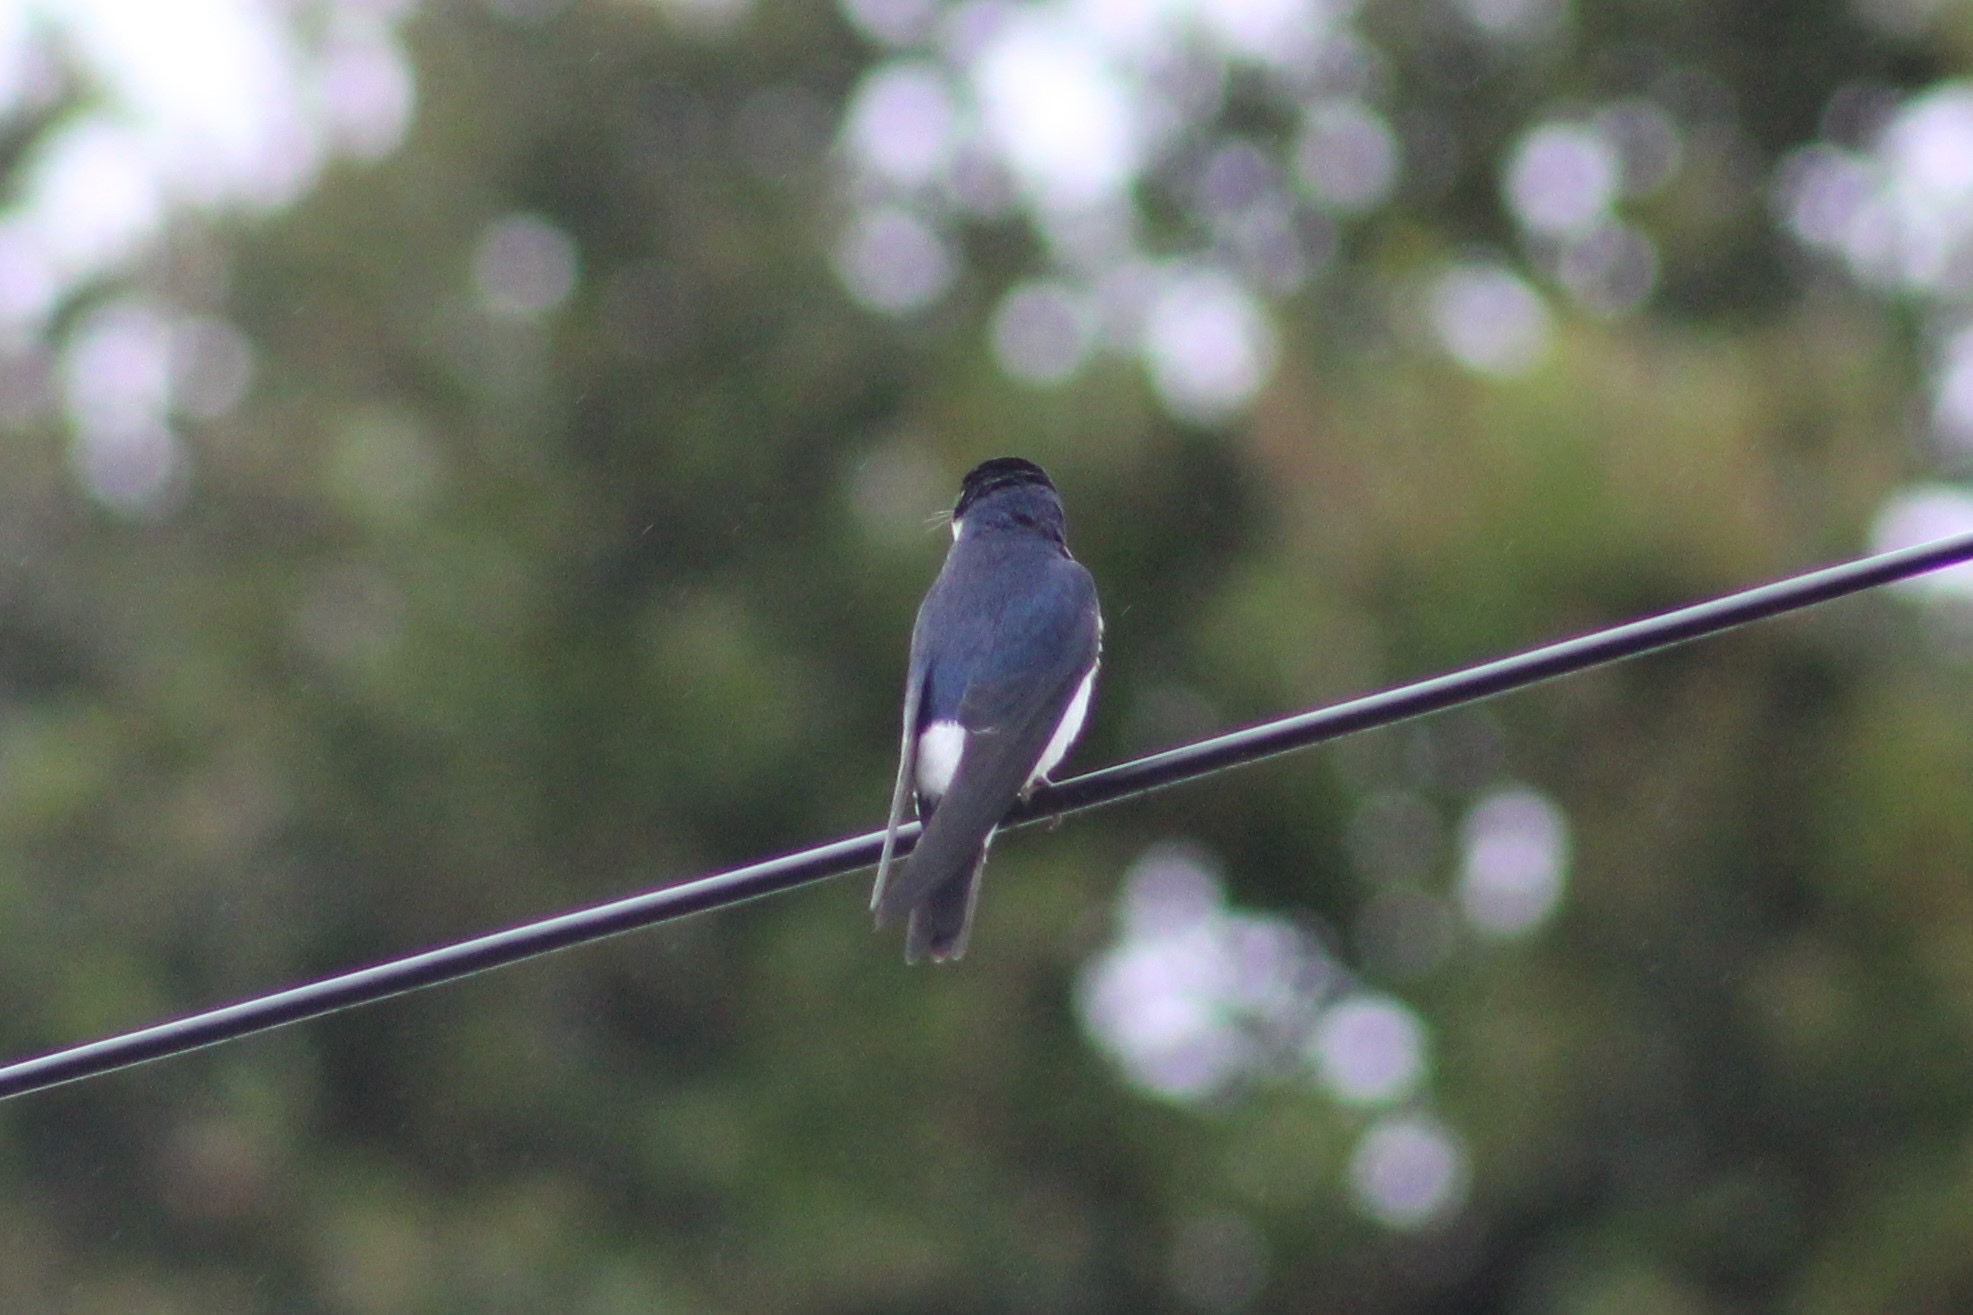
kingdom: Animalia
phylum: Chordata
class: Aves
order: Passeriformes
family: Hirundinidae
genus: Tachycineta
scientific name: Tachycineta leucopyga
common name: Chilean swallow
